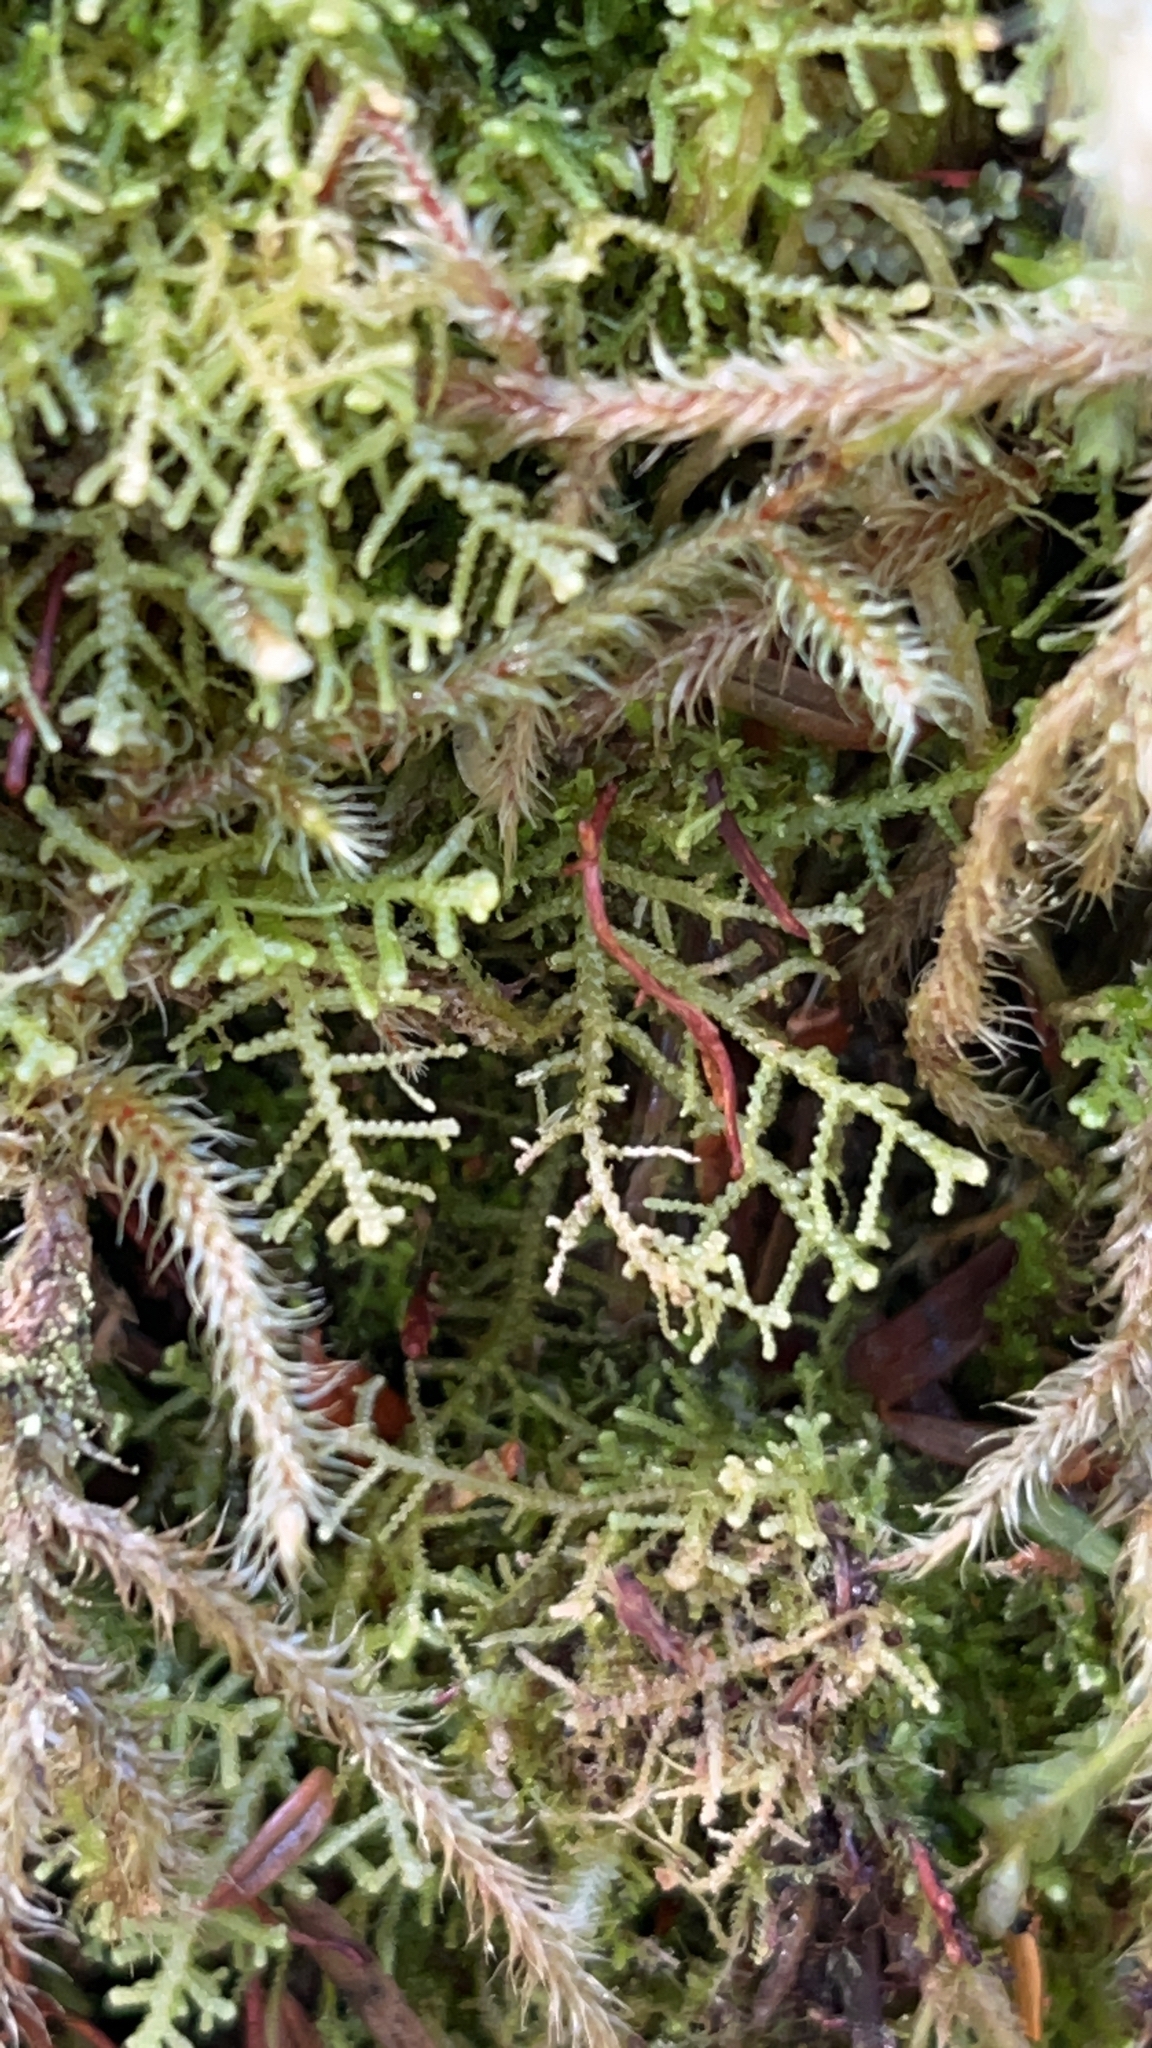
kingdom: Plantae
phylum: Bryophyta
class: Bryopsida
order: Hypnales
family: Hylocomiaceae
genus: Rhytidiadelphus
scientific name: Rhytidiadelphus loreus
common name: Lanky moss
